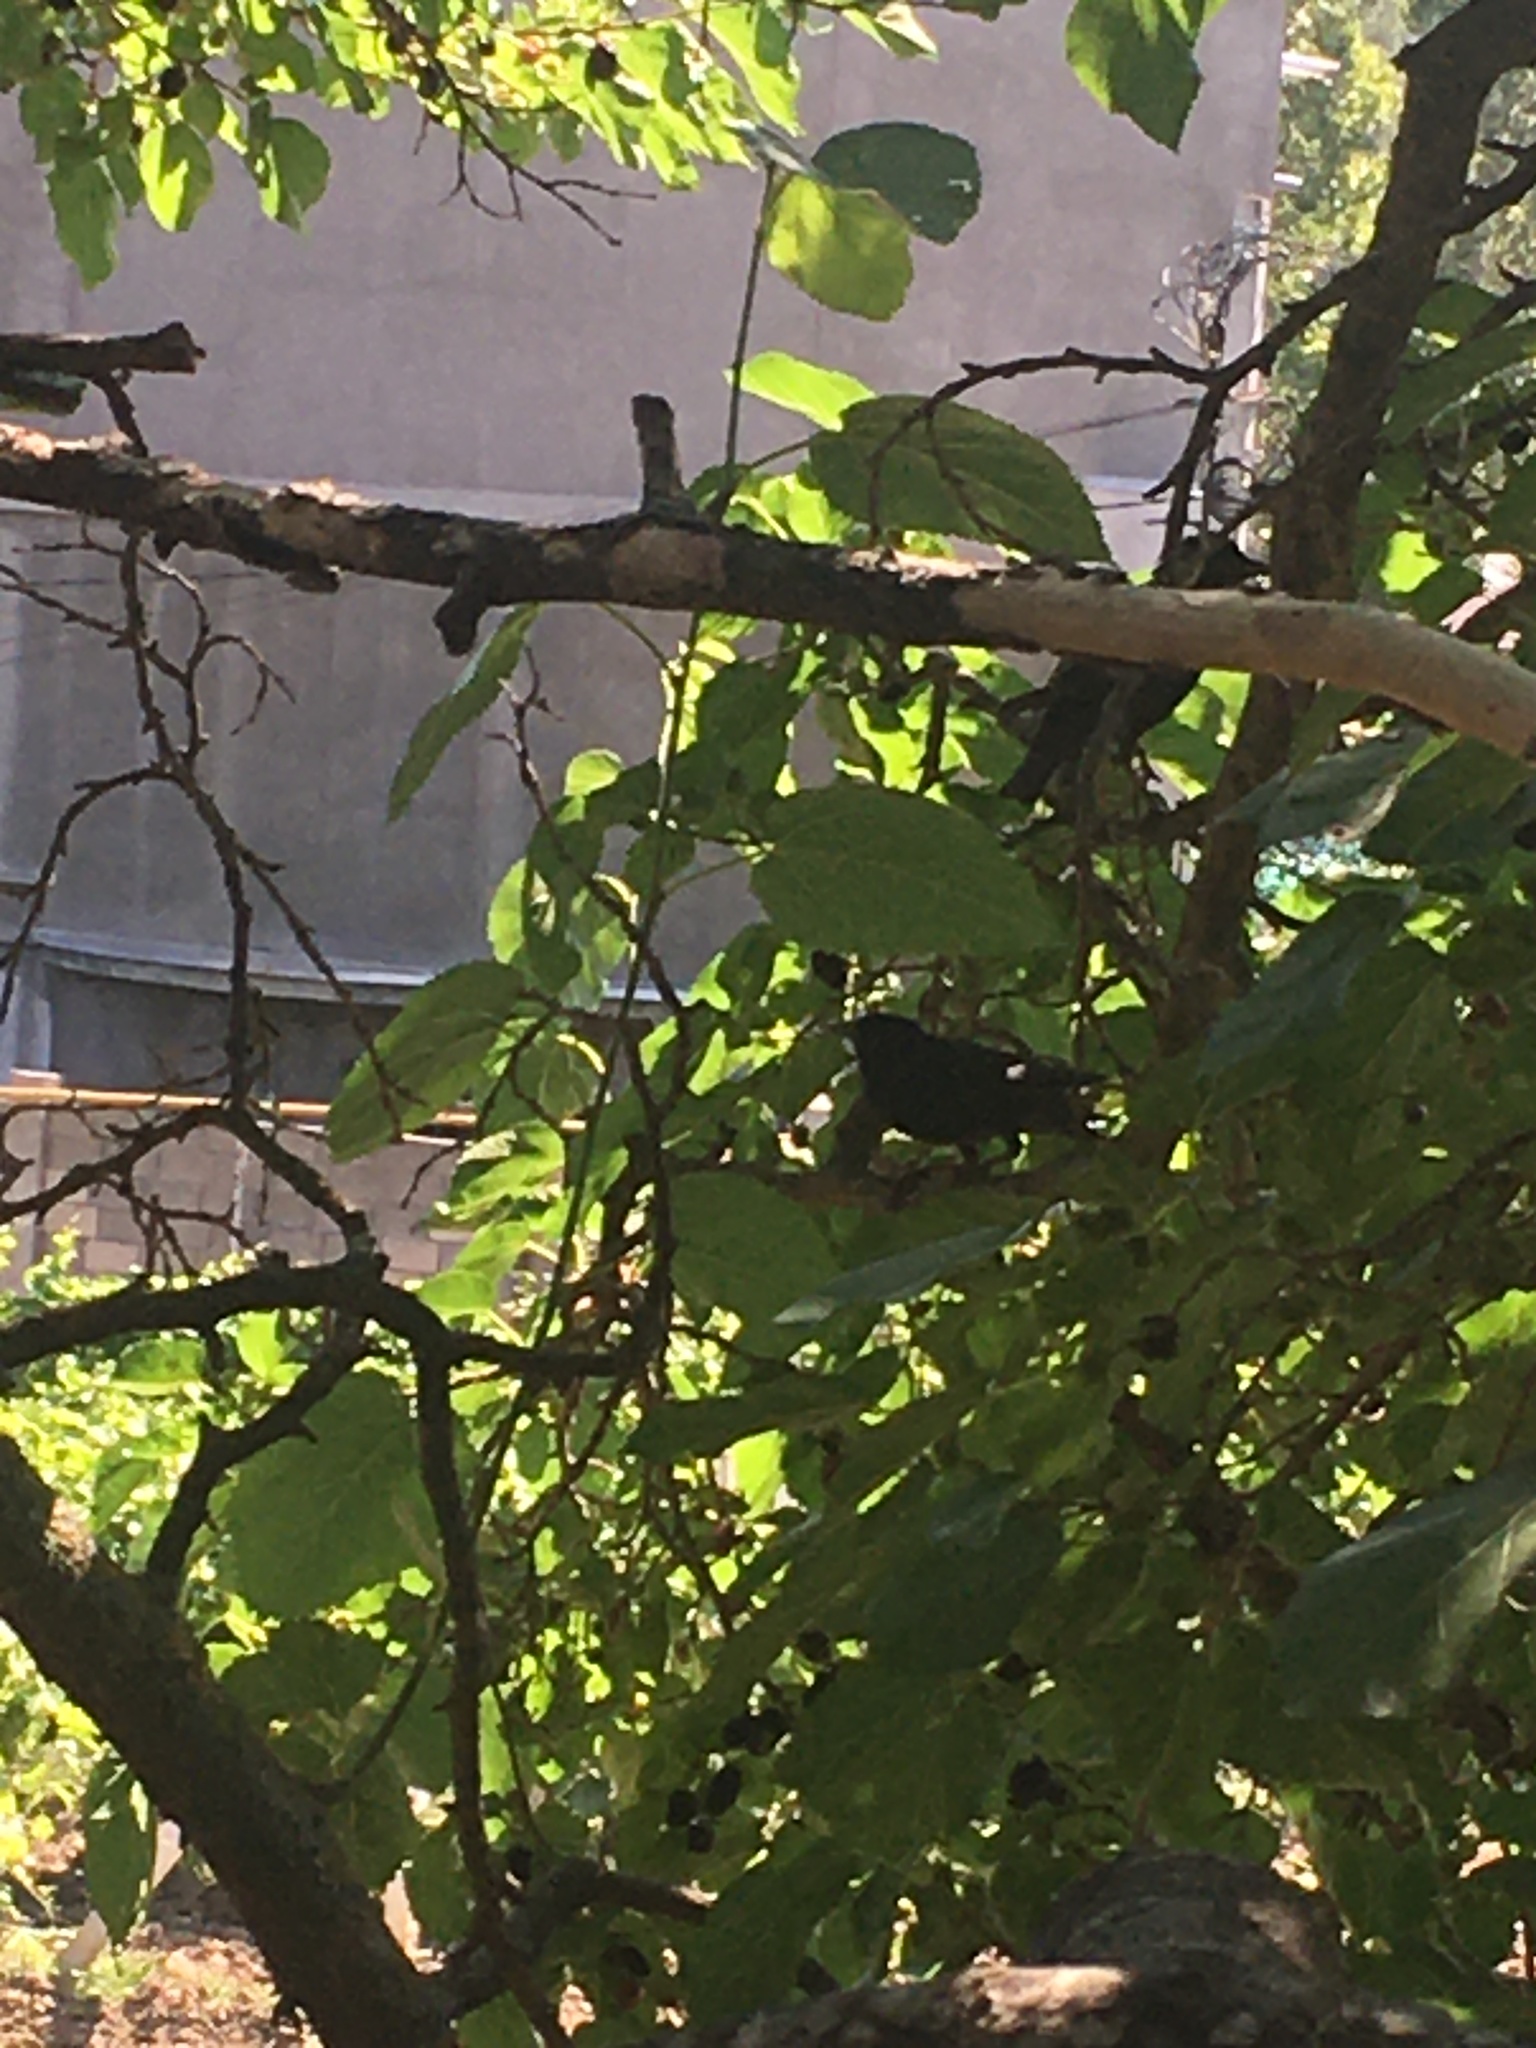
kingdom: Animalia
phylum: Chordata
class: Aves
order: Passeriformes
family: Sturnidae
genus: Sturnus
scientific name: Sturnus vulgaris
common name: Common starling
